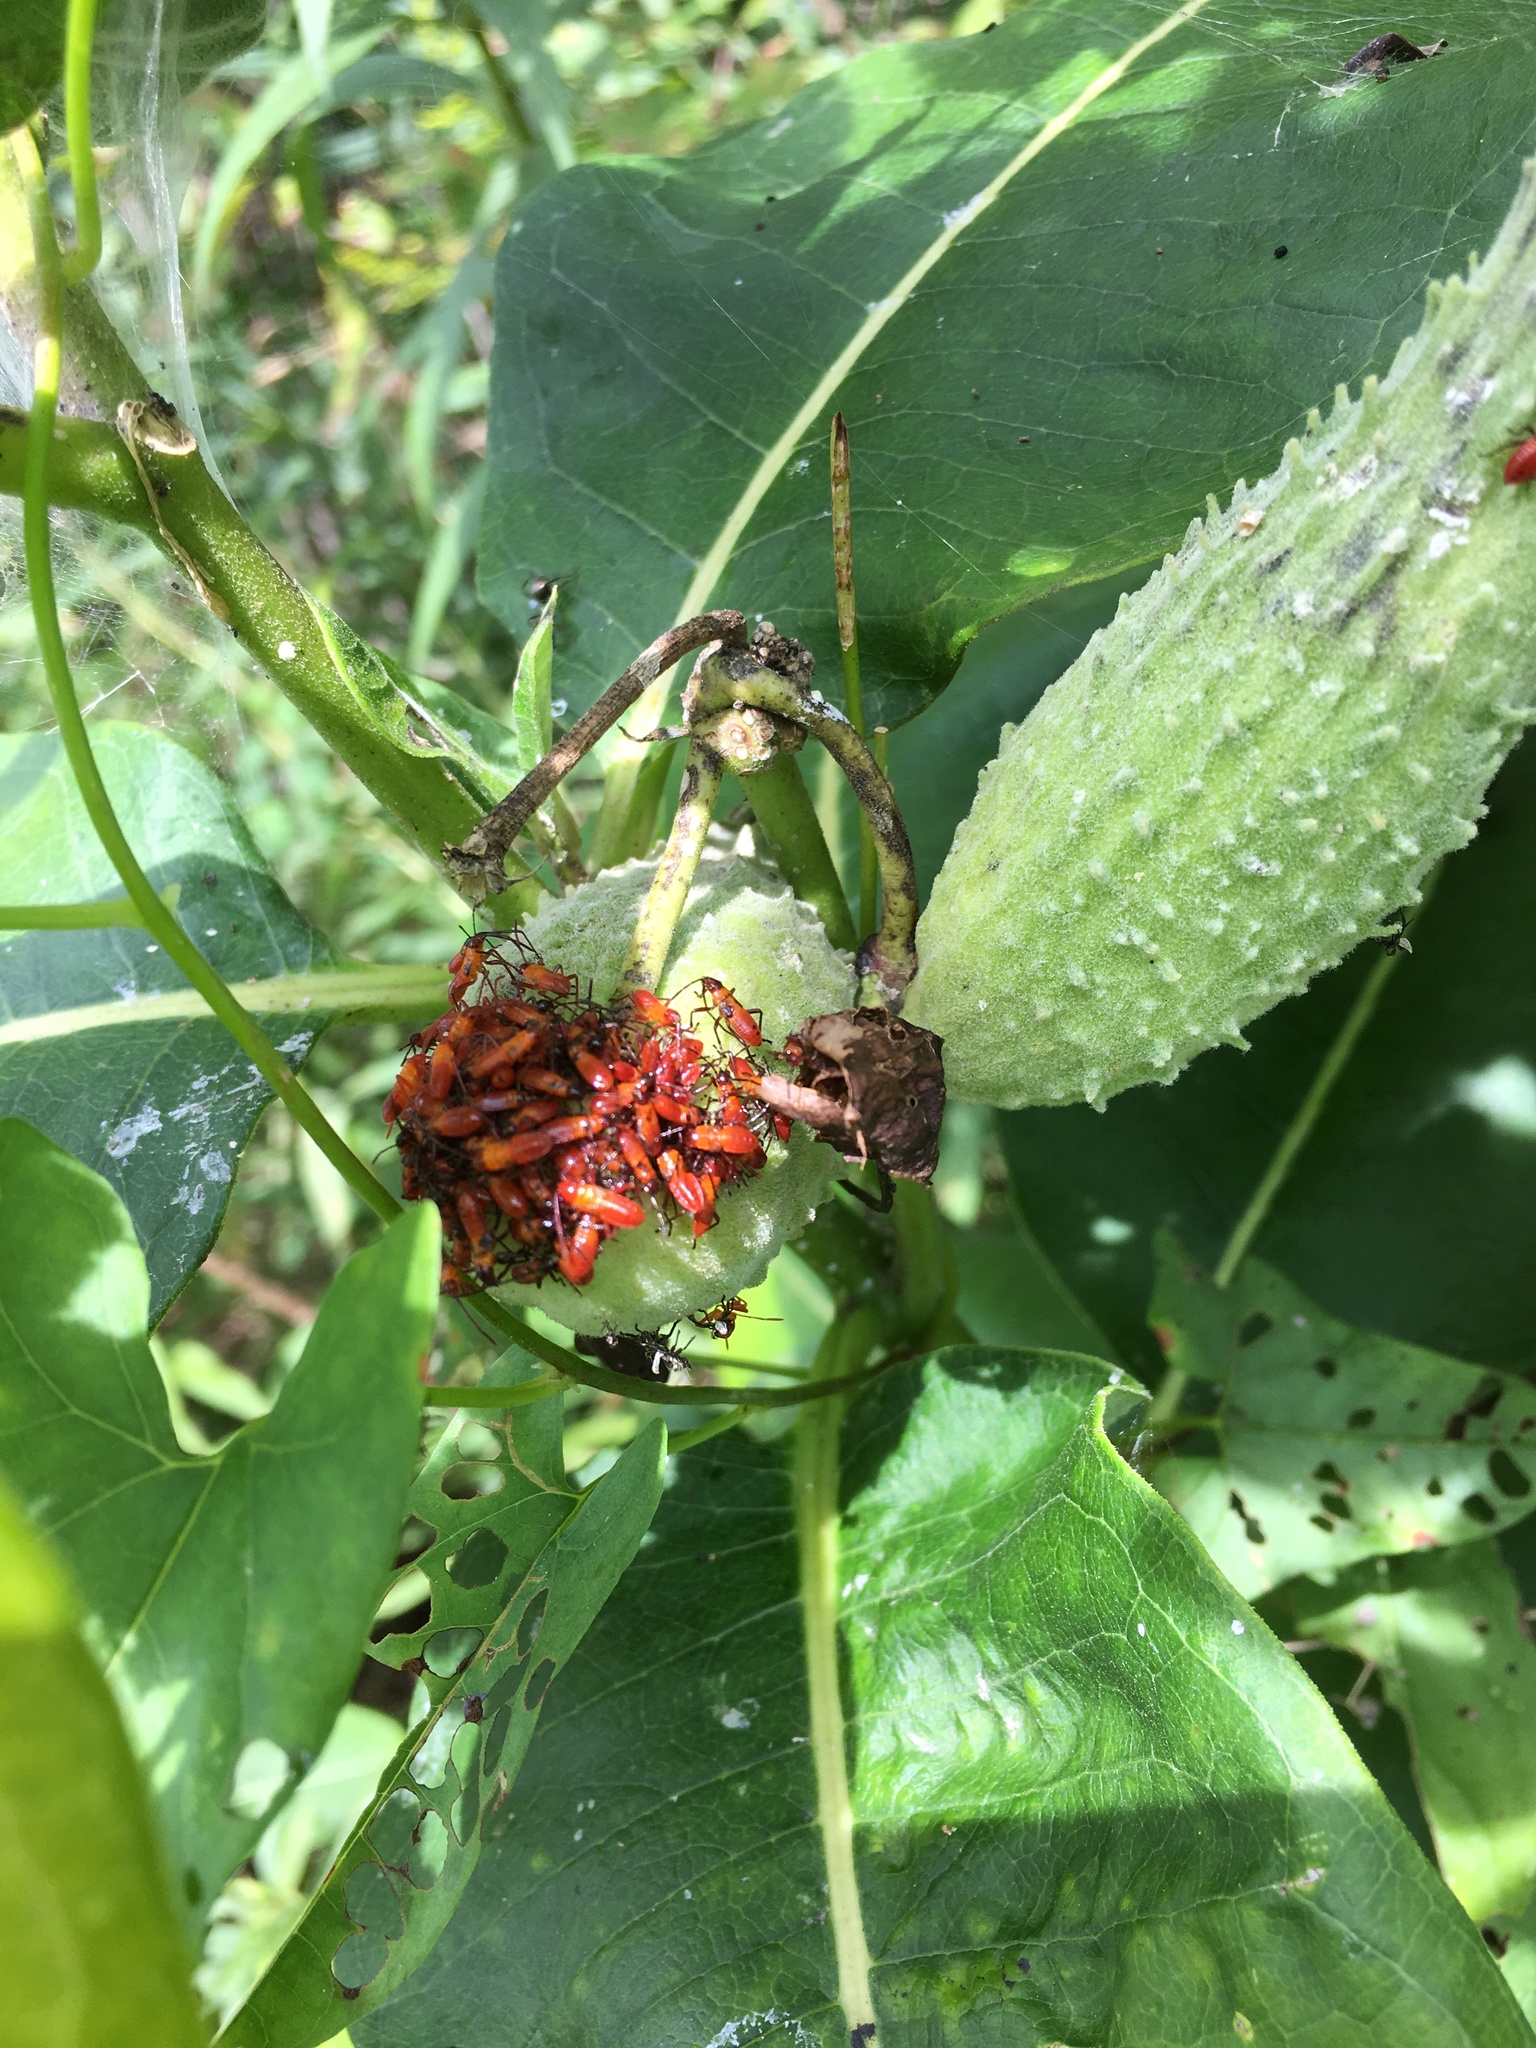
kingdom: Animalia
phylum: Arthropoda
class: Insecta
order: Hemiptera
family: Lygaeidae
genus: Oncopeltus
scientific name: Oncopeltus fasciatus
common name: Large milkweed bug
